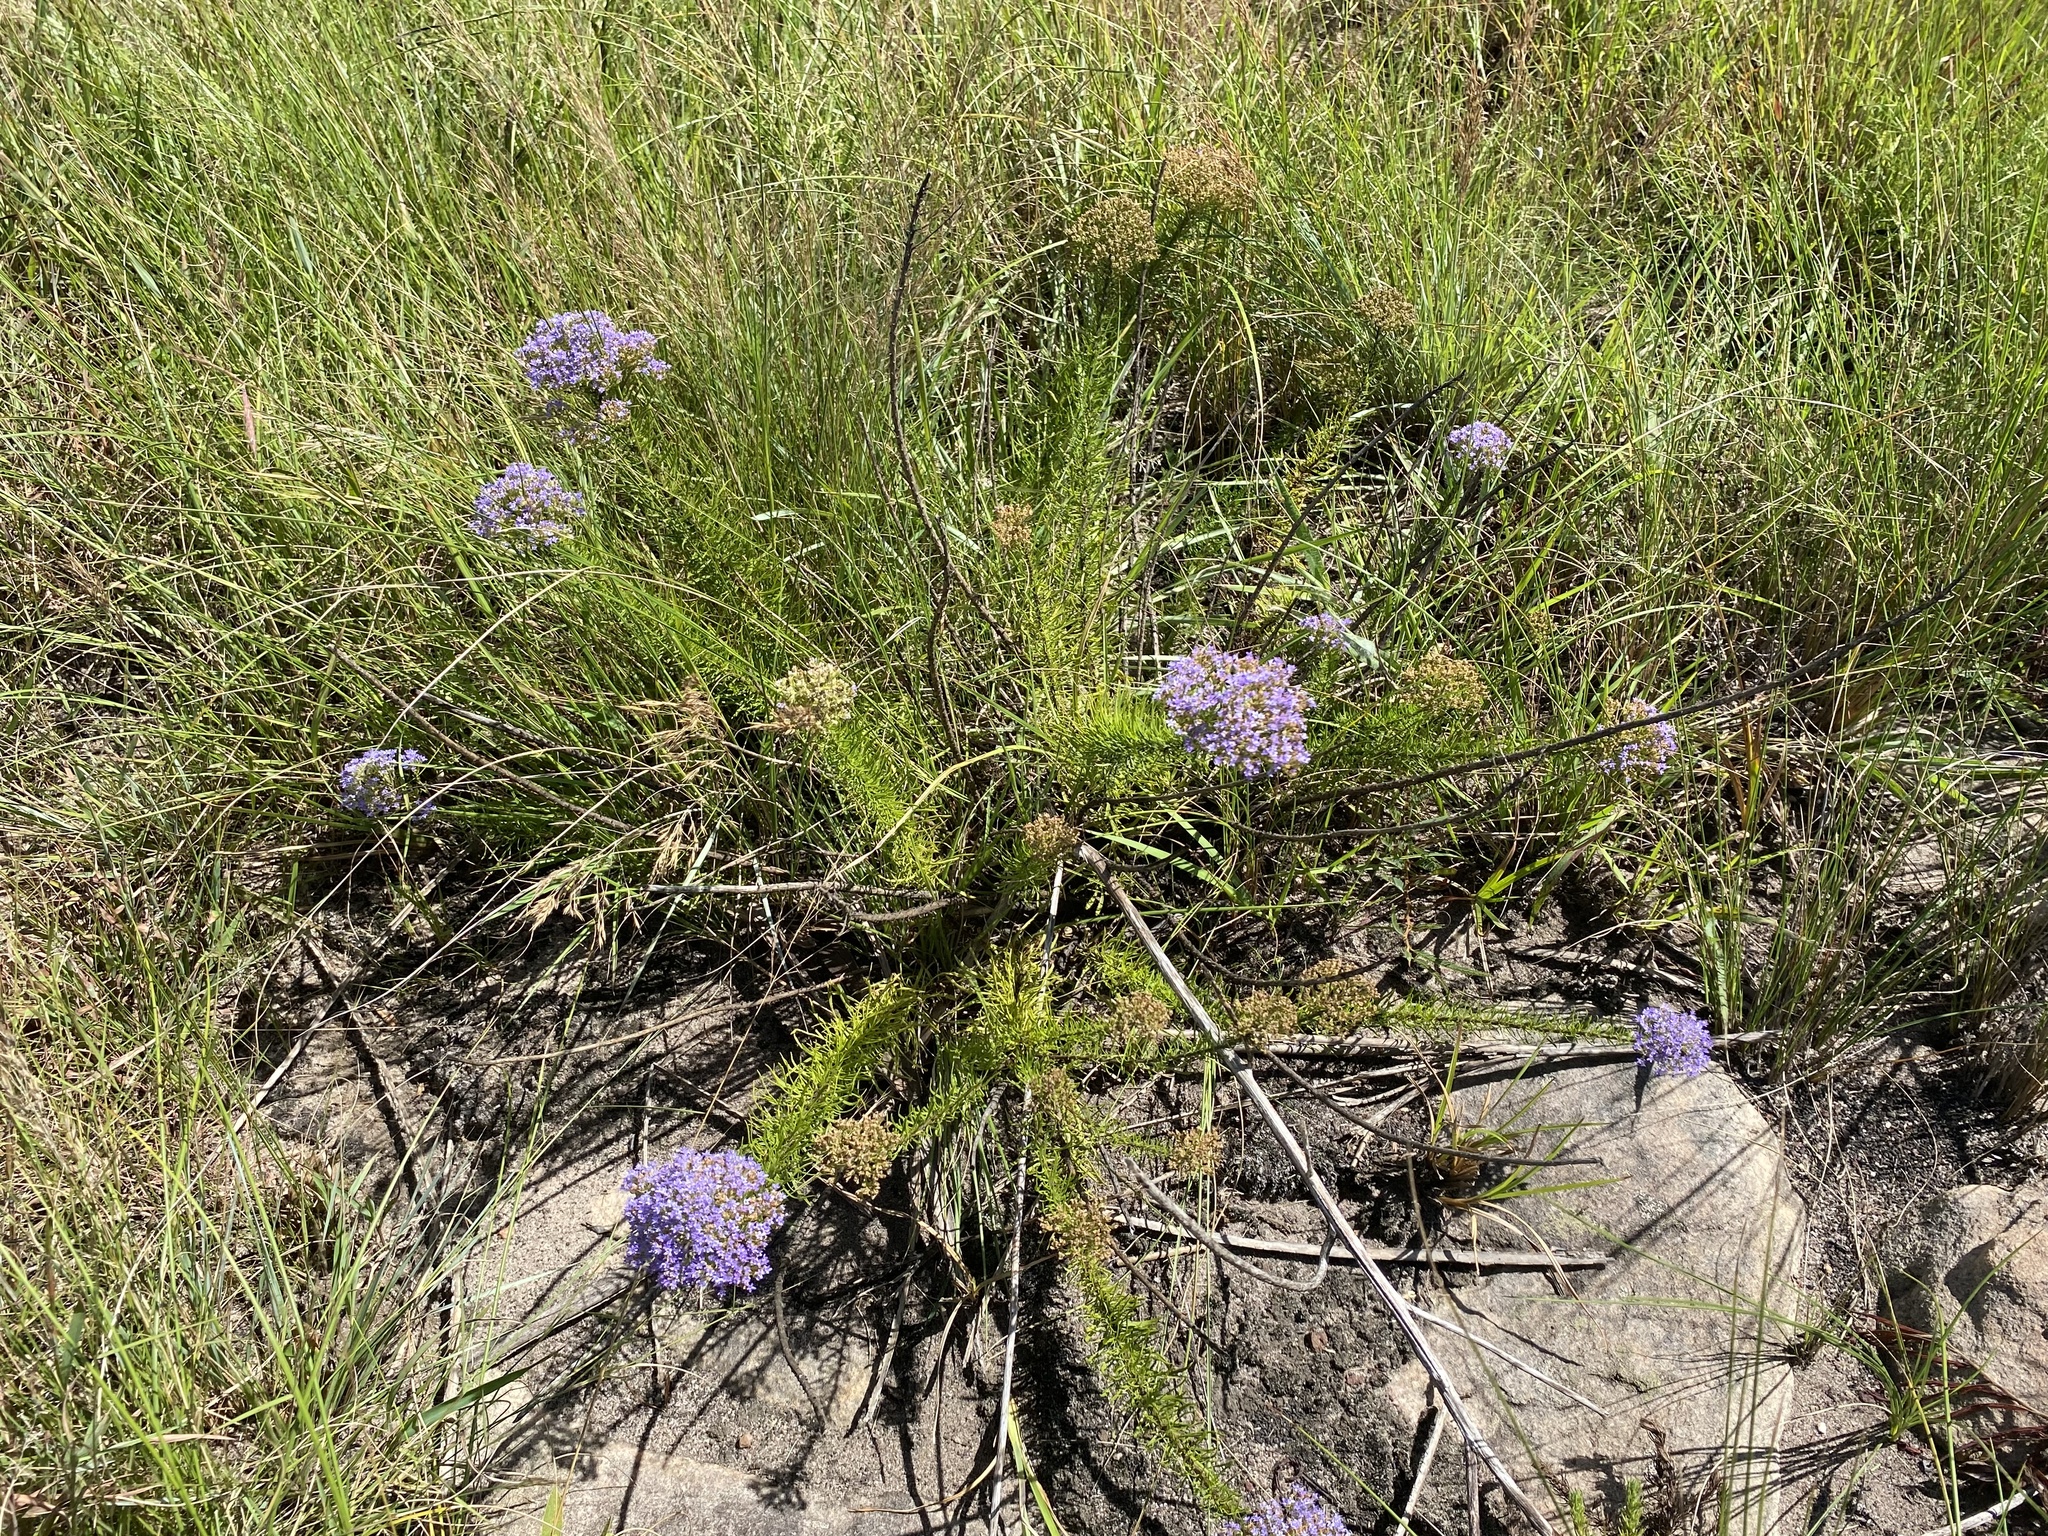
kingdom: Plantae
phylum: Tracheophyta
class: Magnoliopsida
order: Lamiales
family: Scrophulariaceae
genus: Tetraselago
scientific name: Tetraselago natalensis
